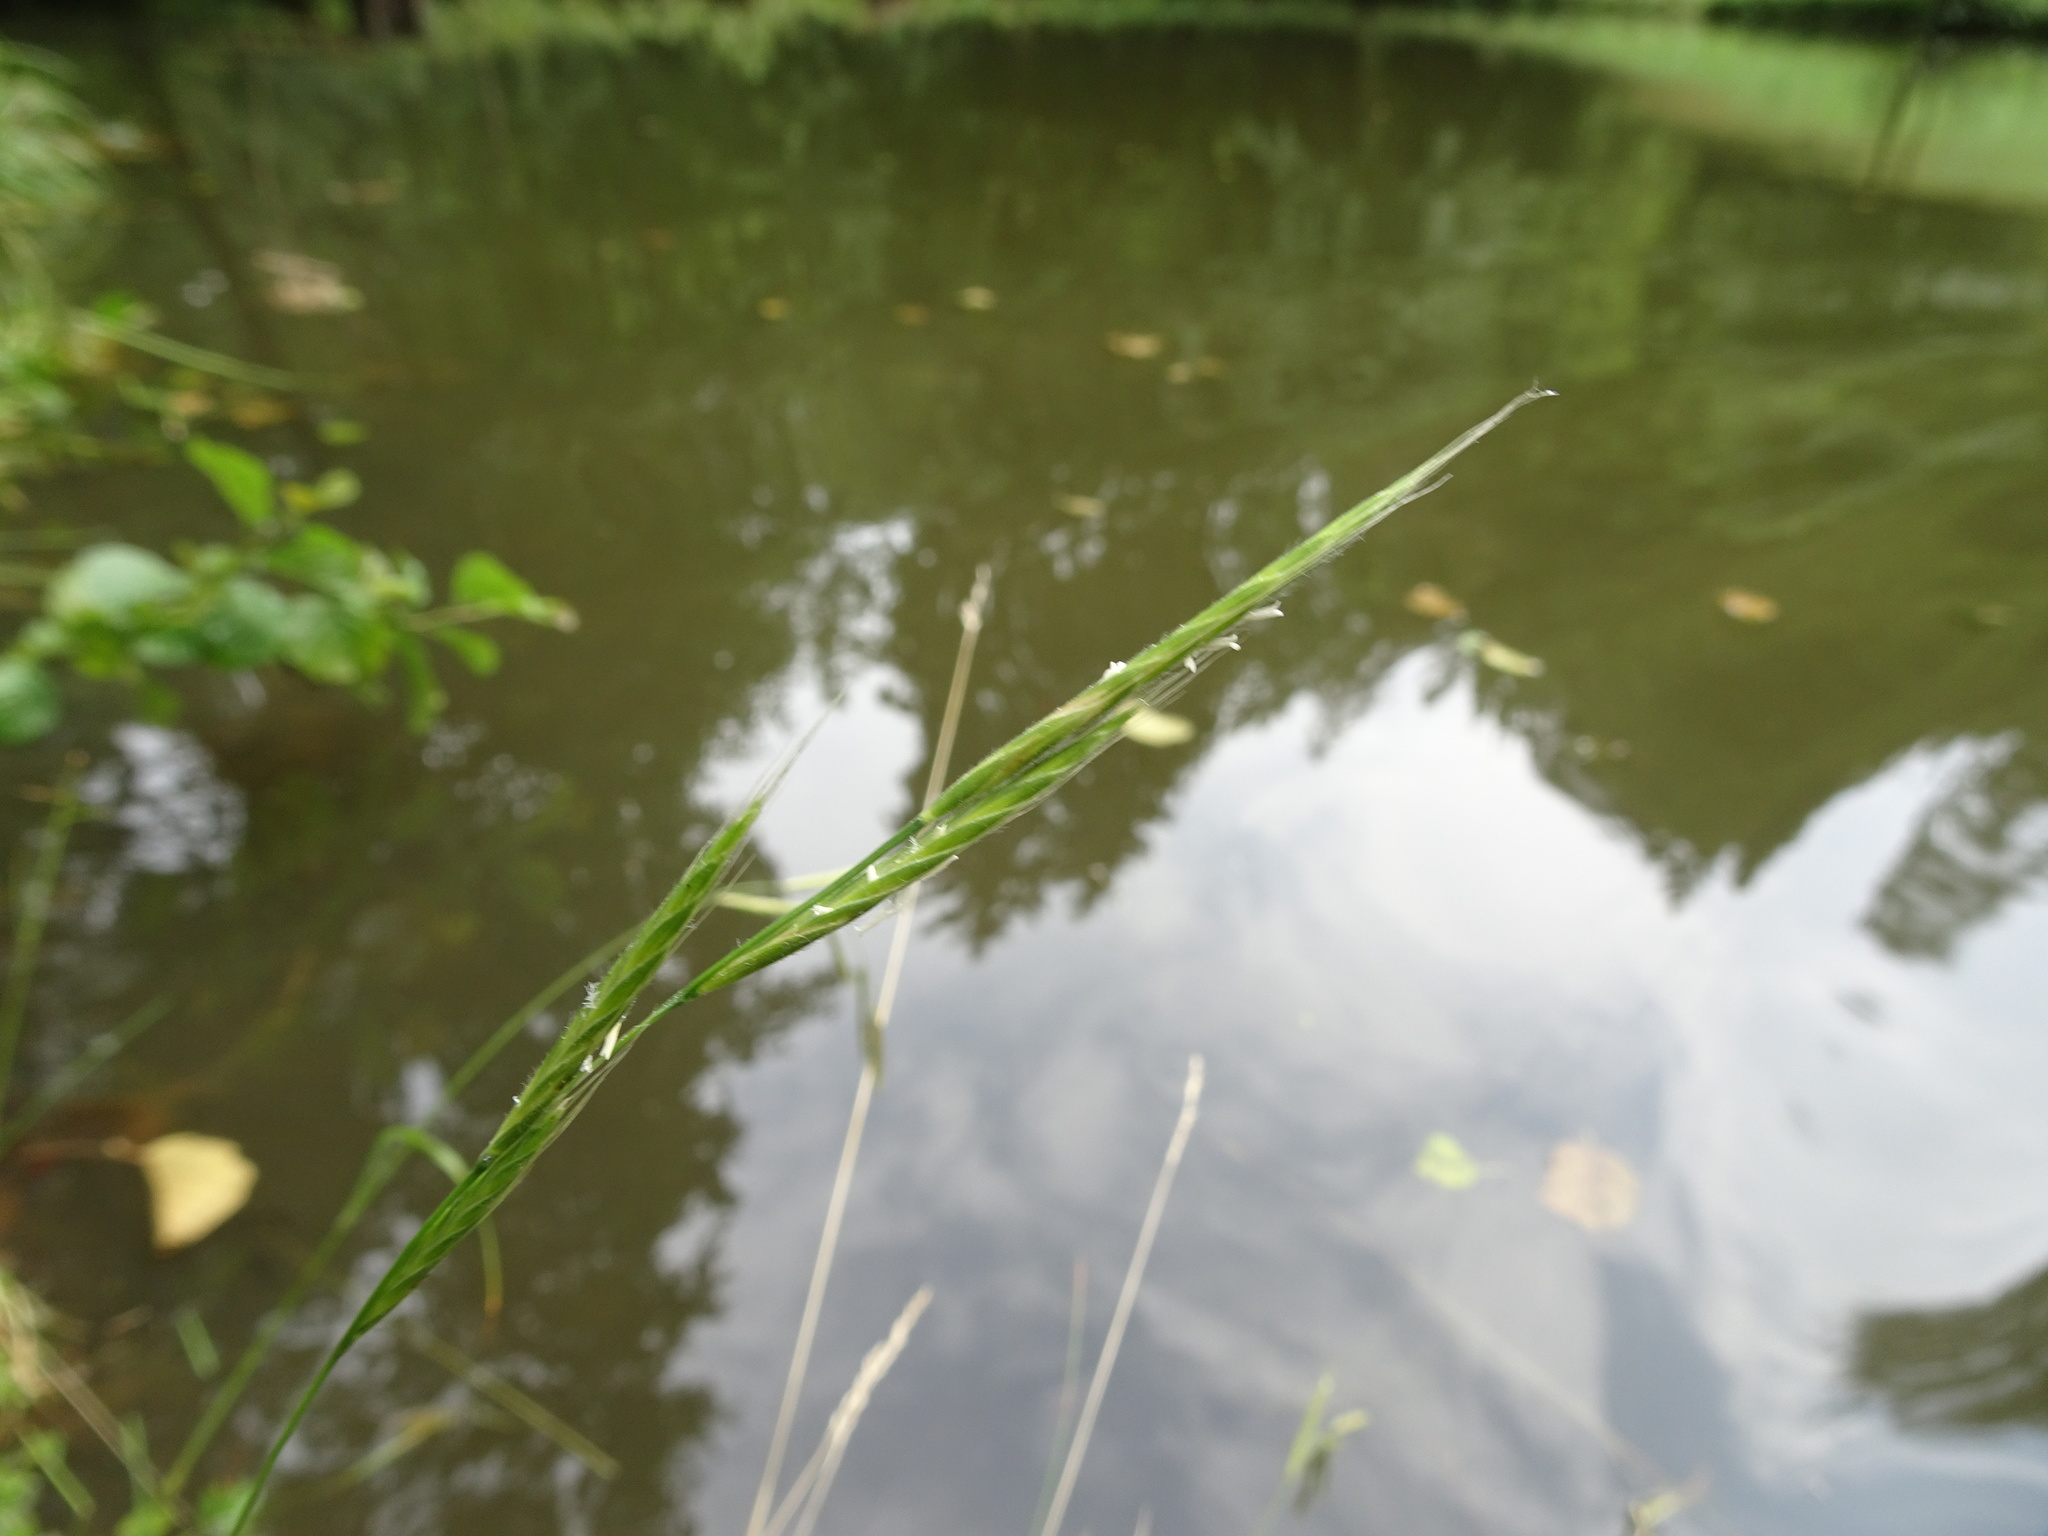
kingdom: Plantae
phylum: Tracheophyta
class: Liliopsida
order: Poales
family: Poaceae
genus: Brachypodium
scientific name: Brachypodium sylvaticum
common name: False-brome
